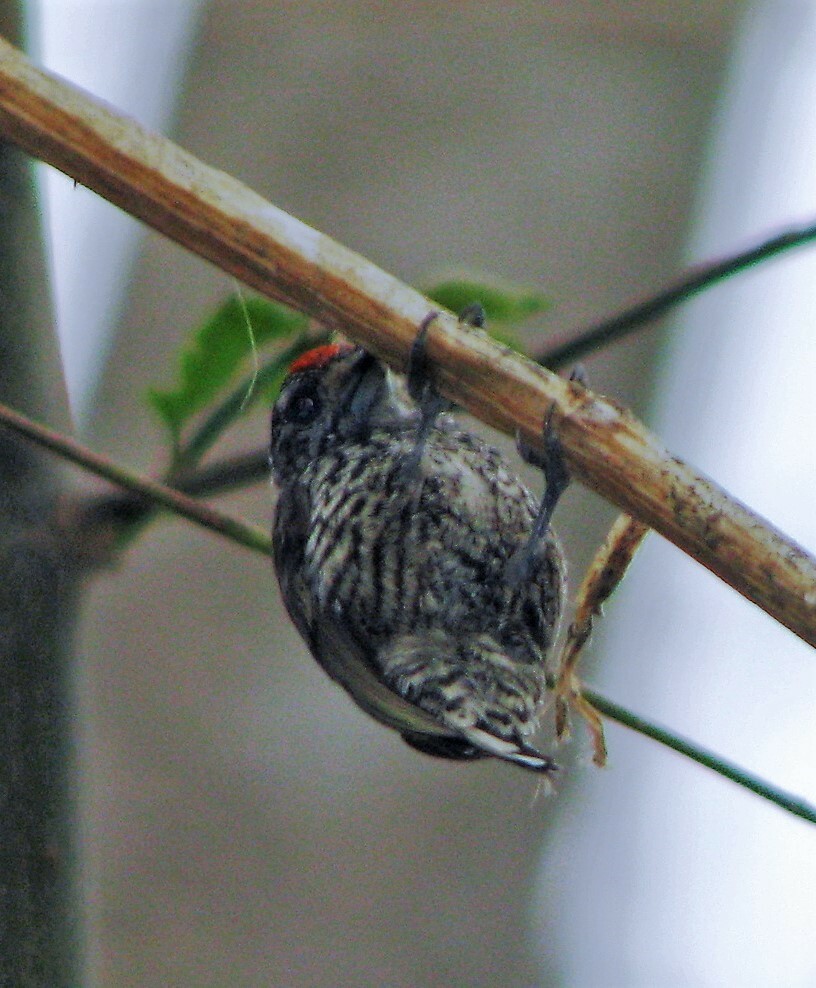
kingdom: Animalia
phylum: Chordata
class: Aves
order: Piciformes
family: Picidae
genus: Picumnus
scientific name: Picumnus cirratus
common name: White-barred piculet
